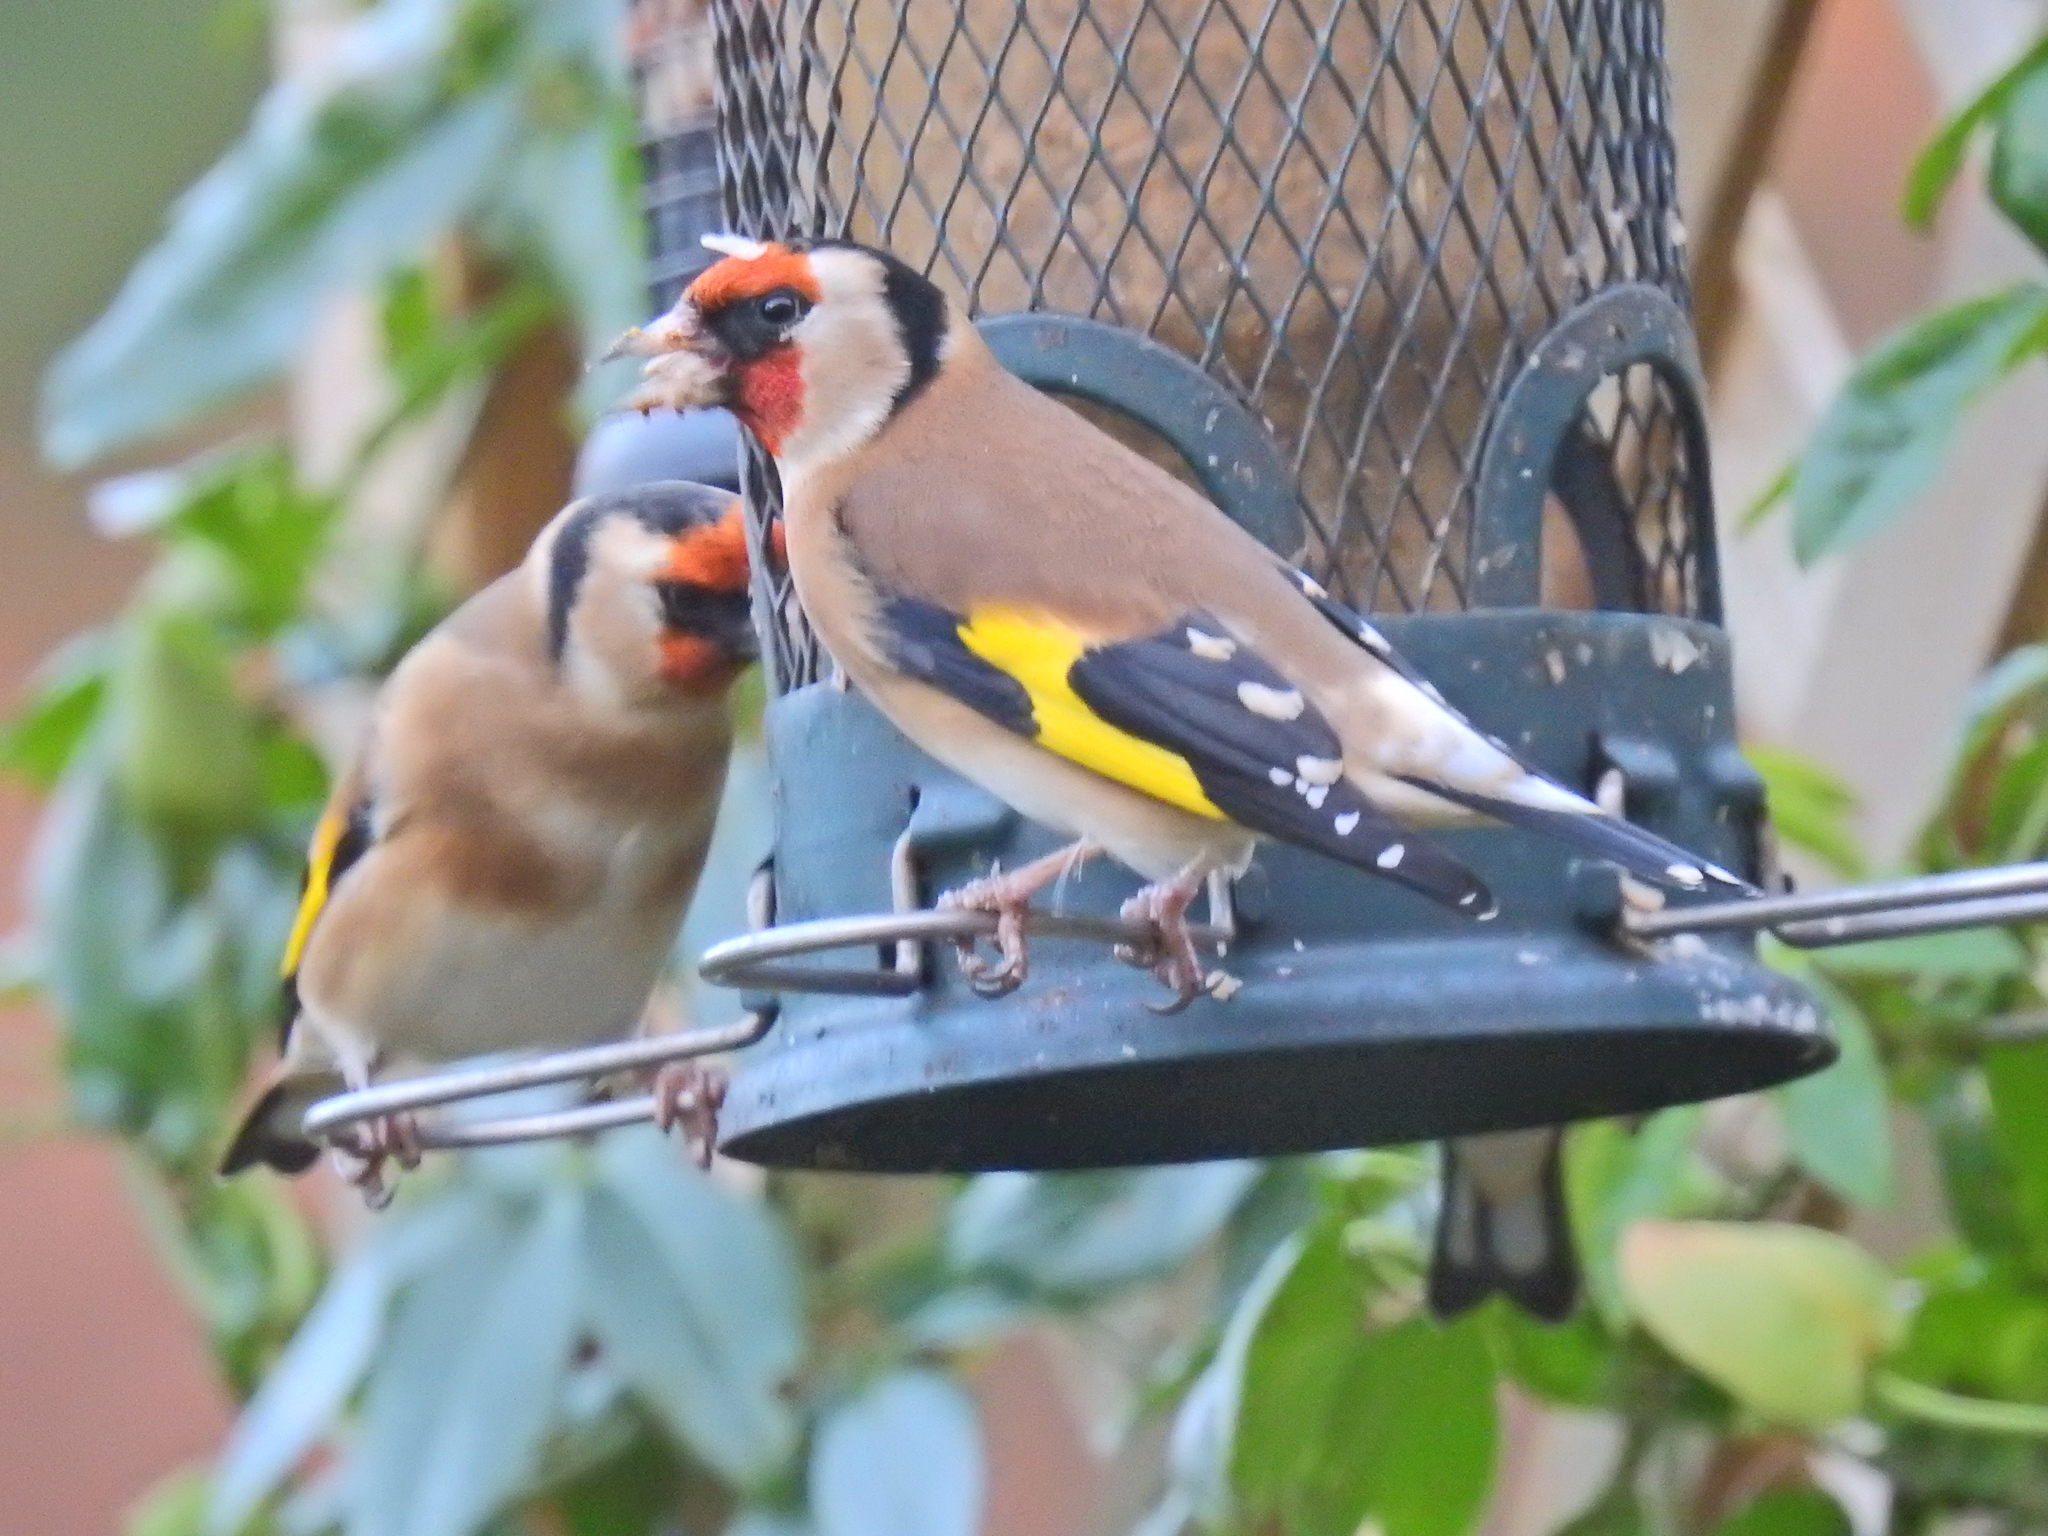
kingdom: Animalia
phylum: Chordata
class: Aves
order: Passeriformes
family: Fringillidae
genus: Carduelis
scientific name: Carduelis carduelis
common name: European goldfinch
